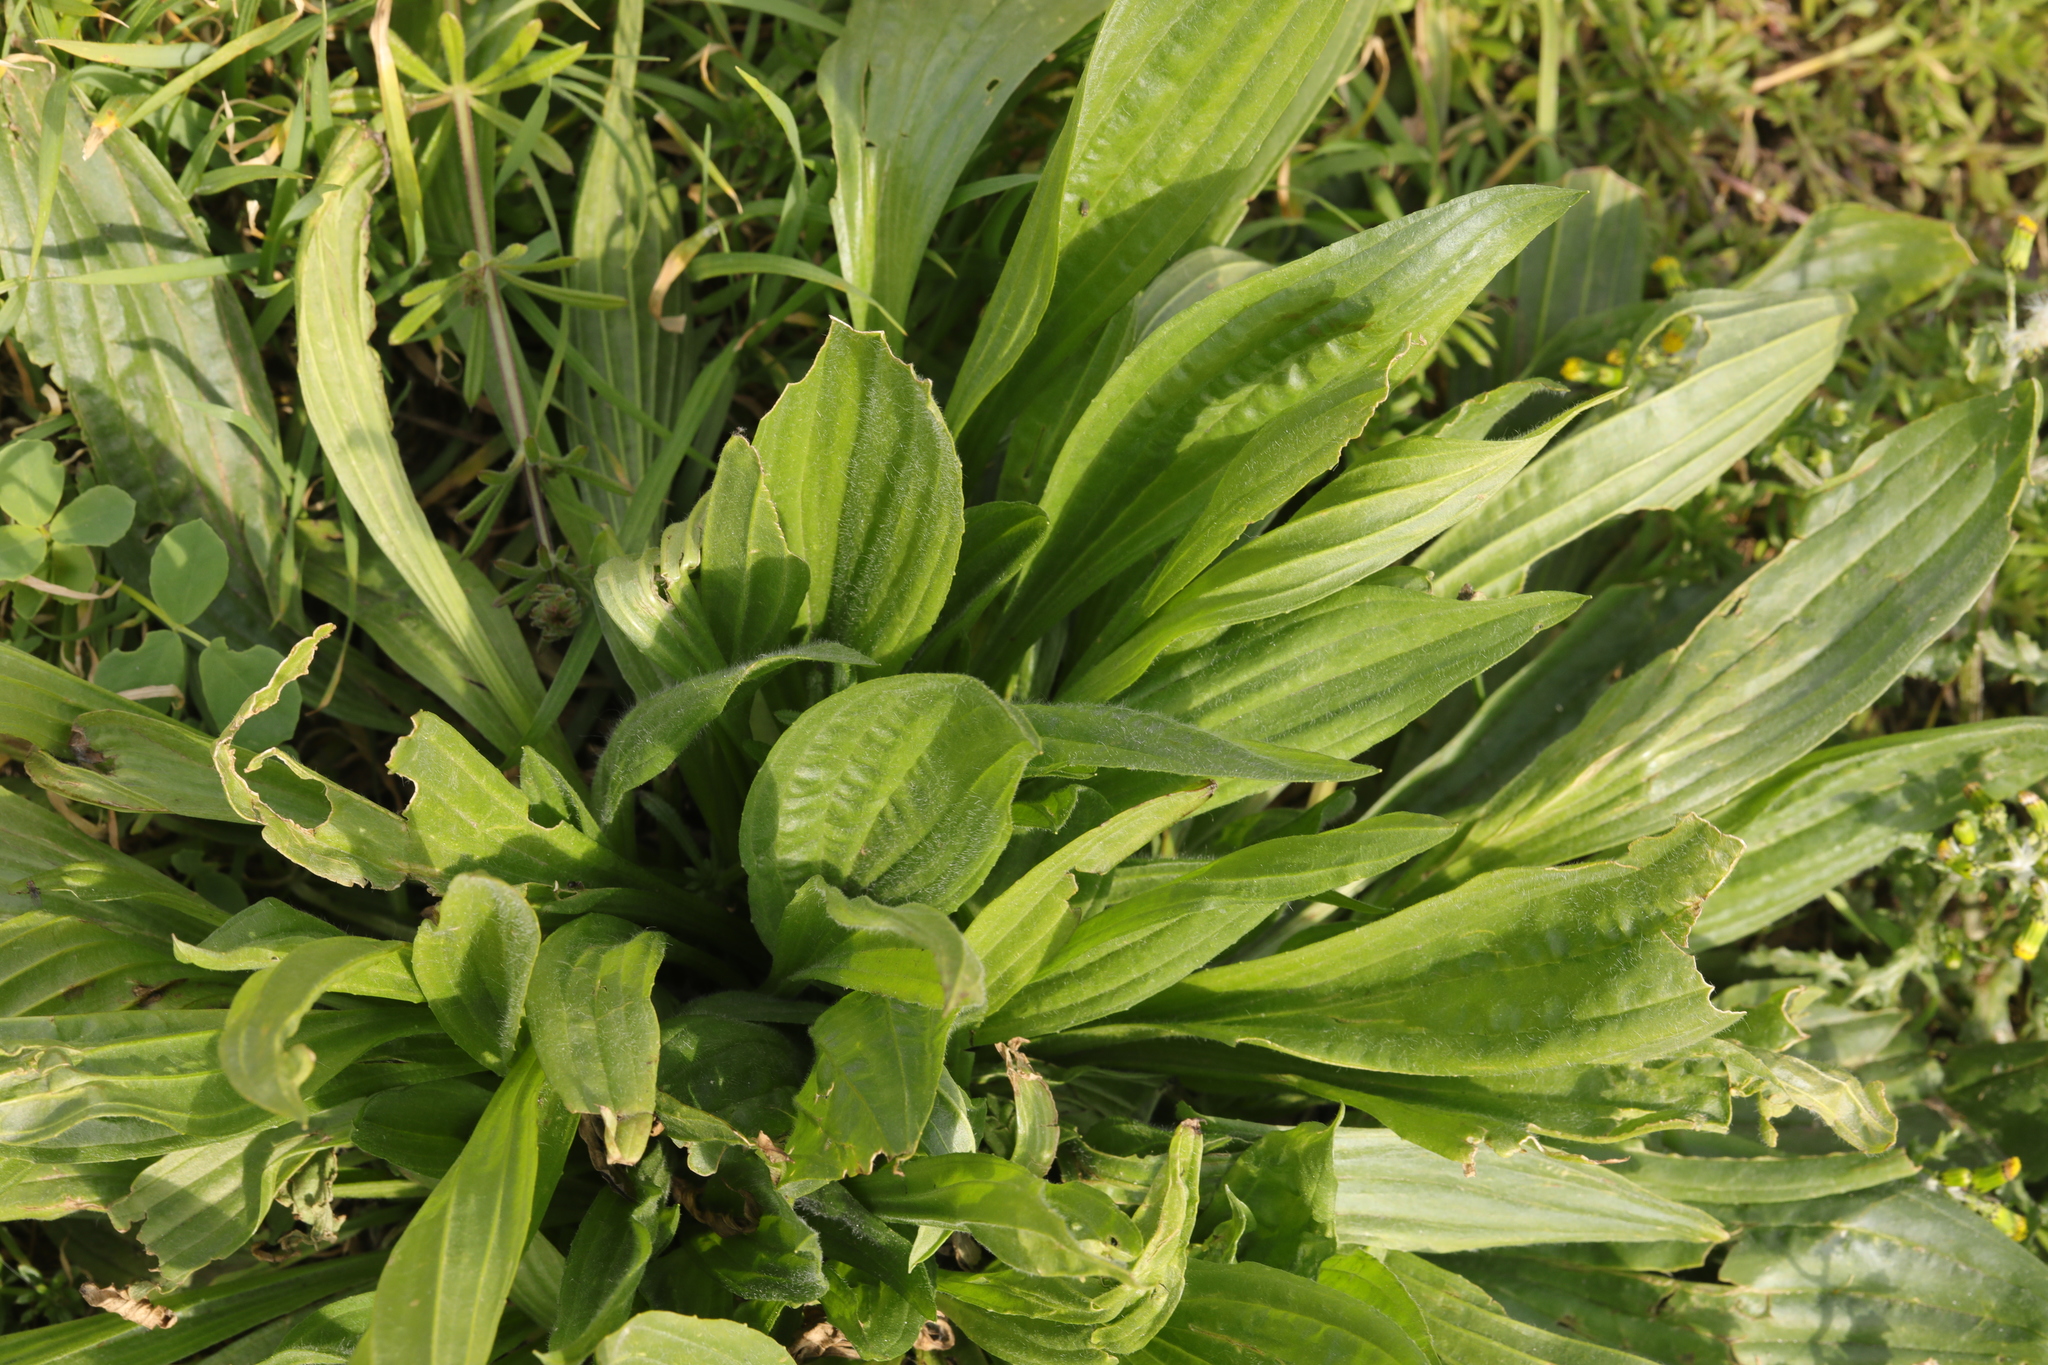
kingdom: Plantae
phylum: Tracheophyta
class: Magnoliopsida
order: Lamiales
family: Plantaginaceae
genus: Plantago
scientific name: Plantago lanceolata
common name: Ribwort plantain
